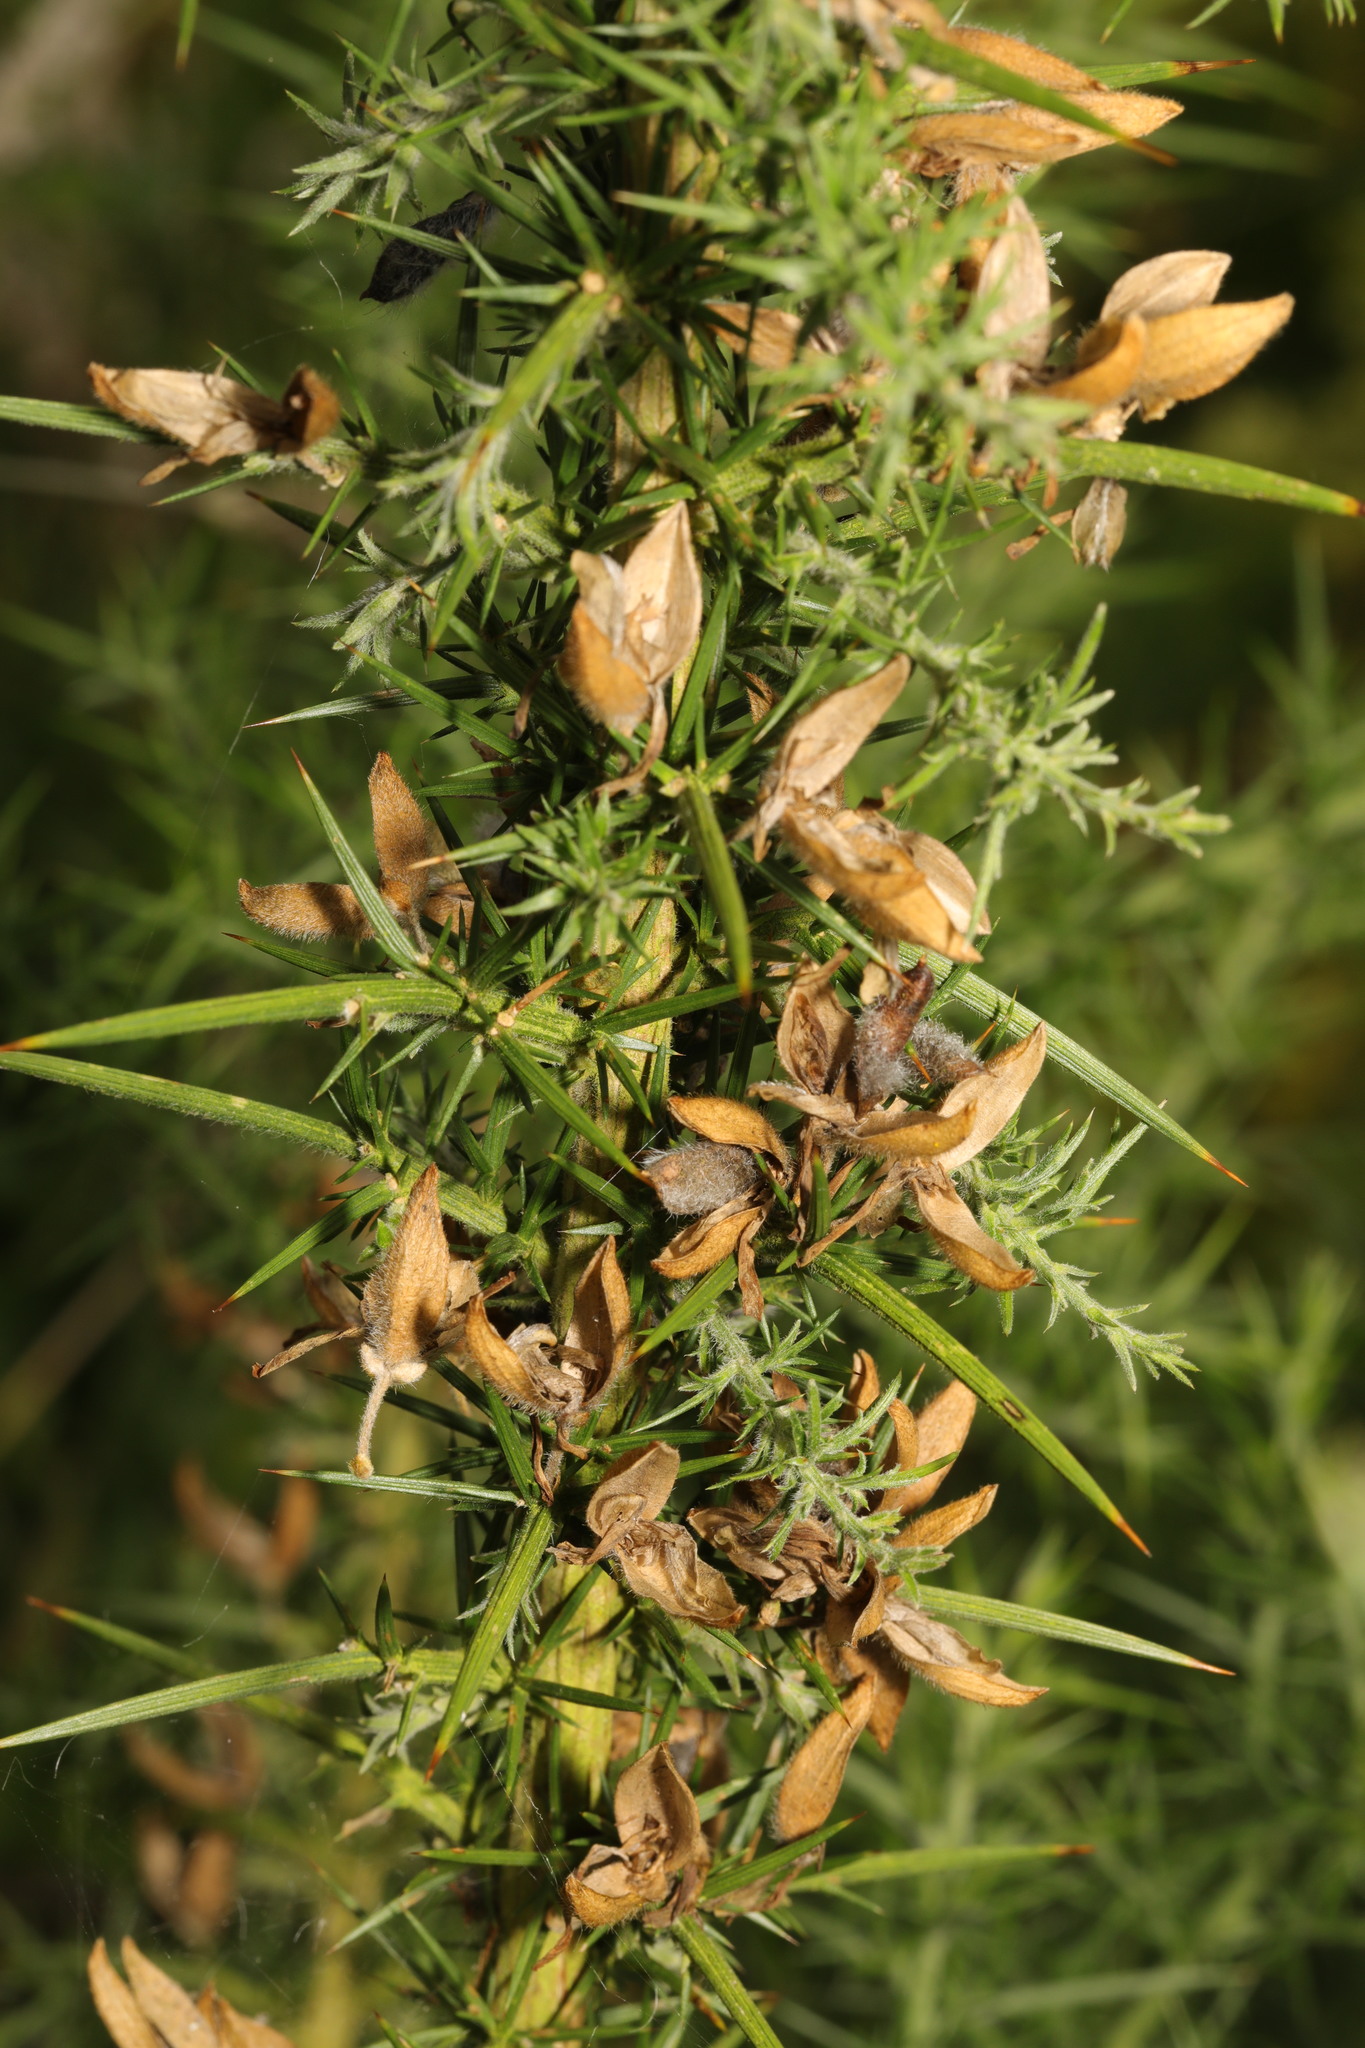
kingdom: Plantae
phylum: Tracheophyta
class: Magnoliopsida
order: Fabales
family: Fabaceae
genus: Ulex
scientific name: Ulex europaeus
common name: Common gorse
